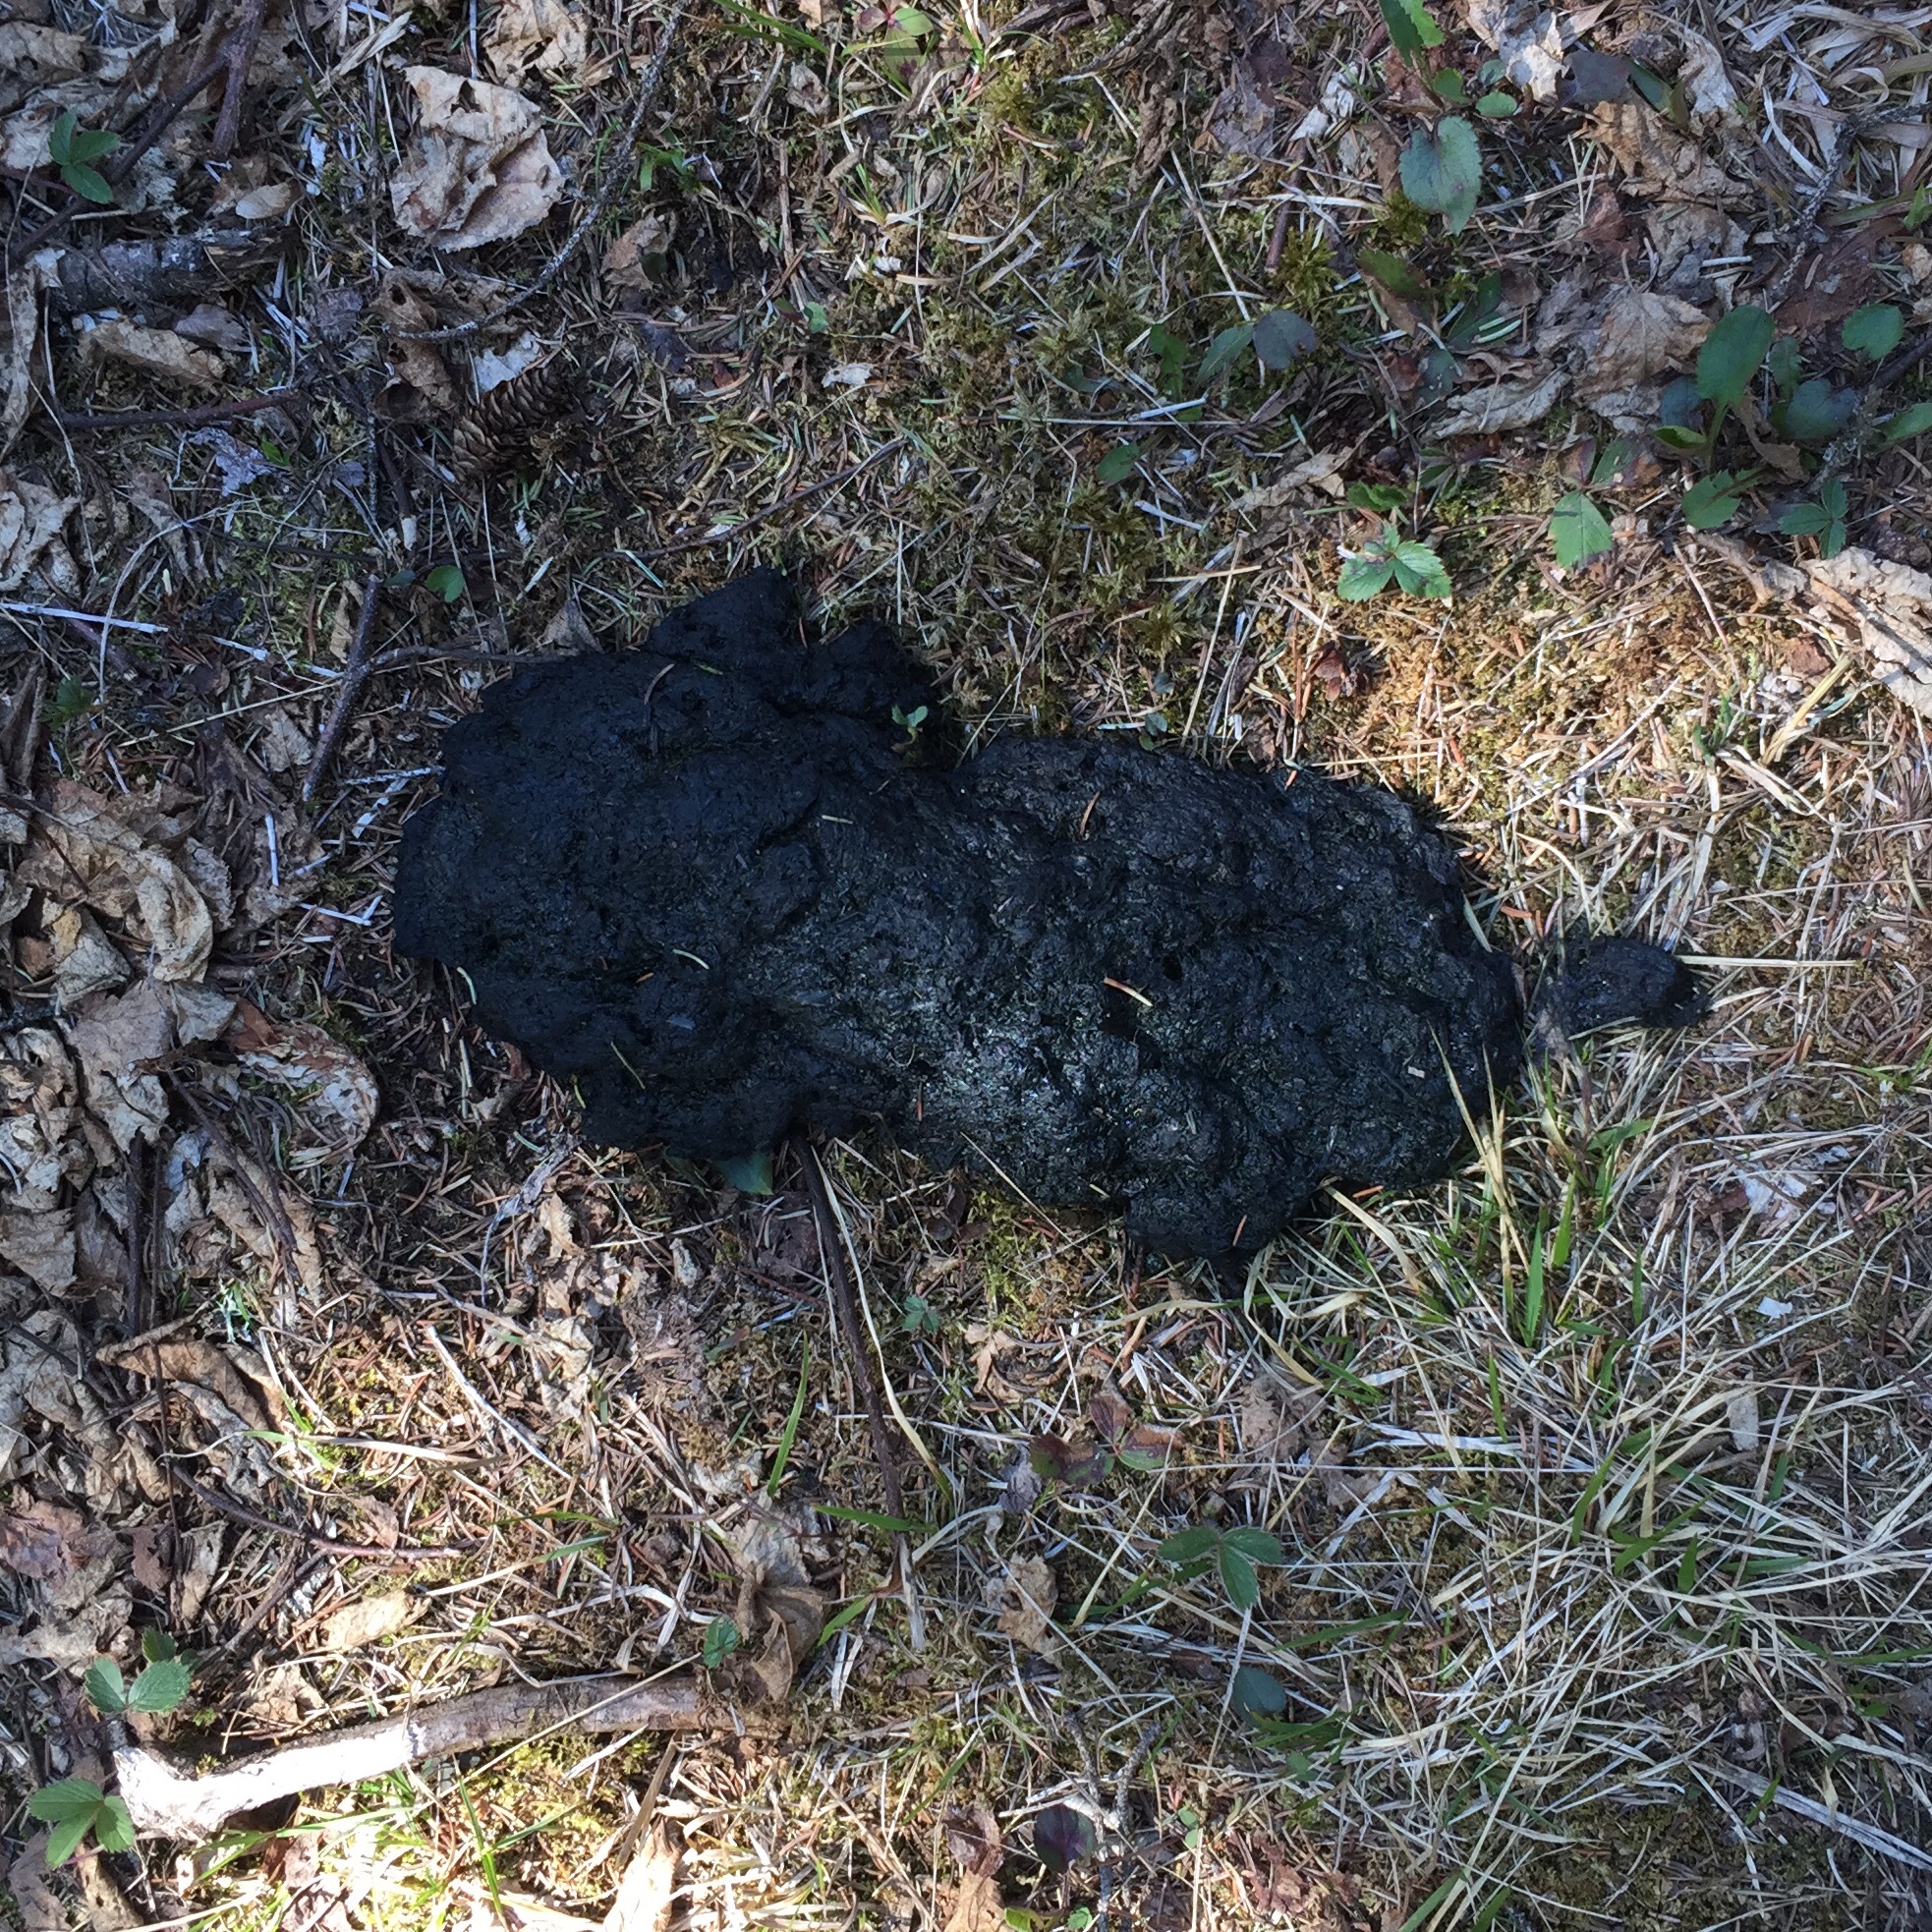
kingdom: Animalia
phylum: Chordata
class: Mammalia
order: Carnivora
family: Ursidae
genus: Ursus
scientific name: Ursus americanus
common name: American black bear
